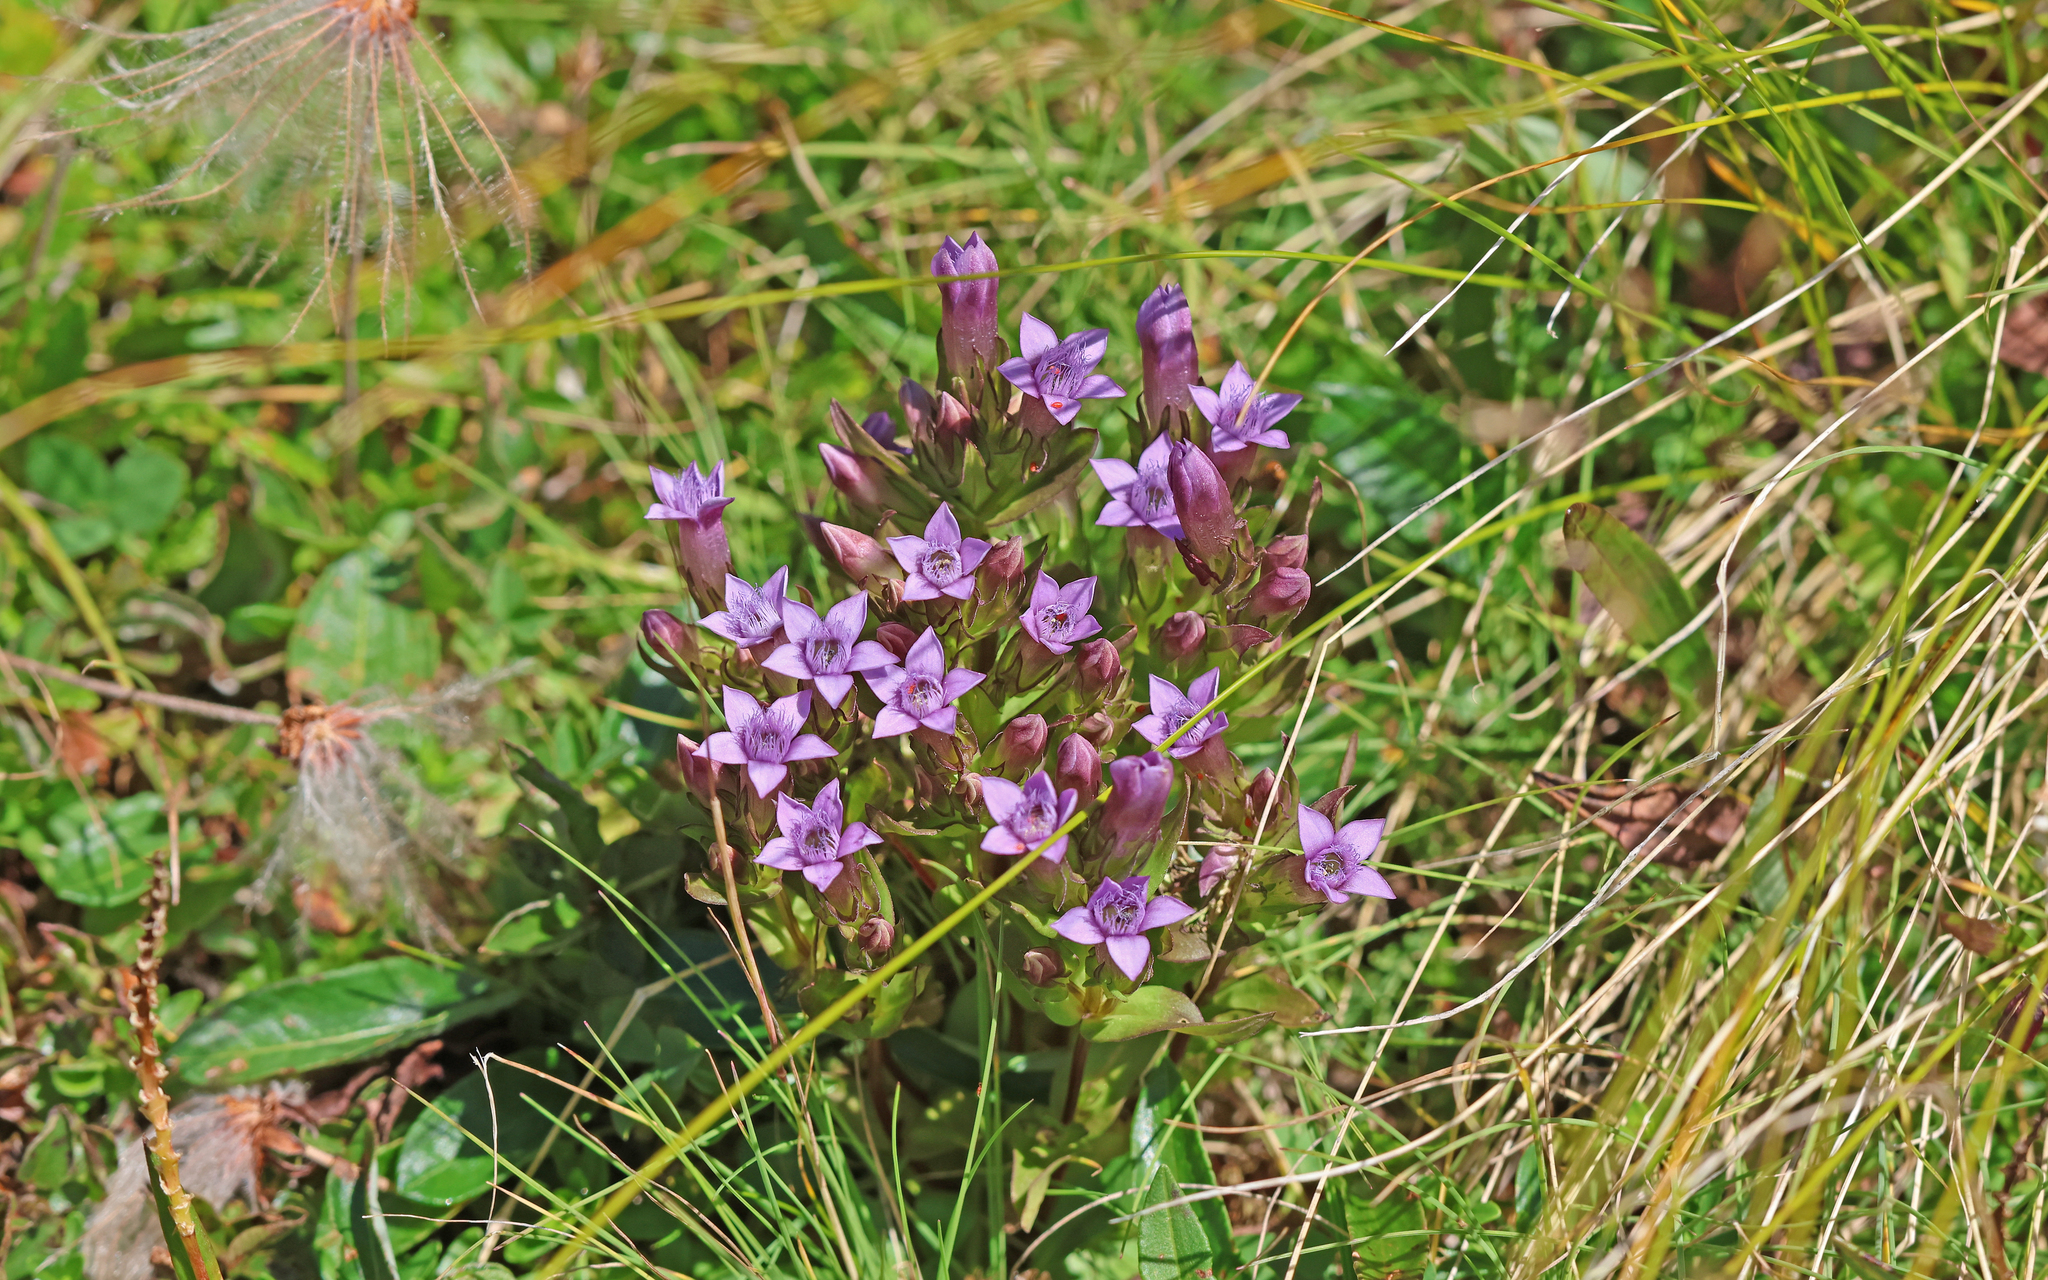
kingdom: Plantae
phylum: Tracheophyta
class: Magnoliopsida
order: Gentianales
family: Gentianaceae
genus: Gentianella
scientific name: Gentianella anisodonta
